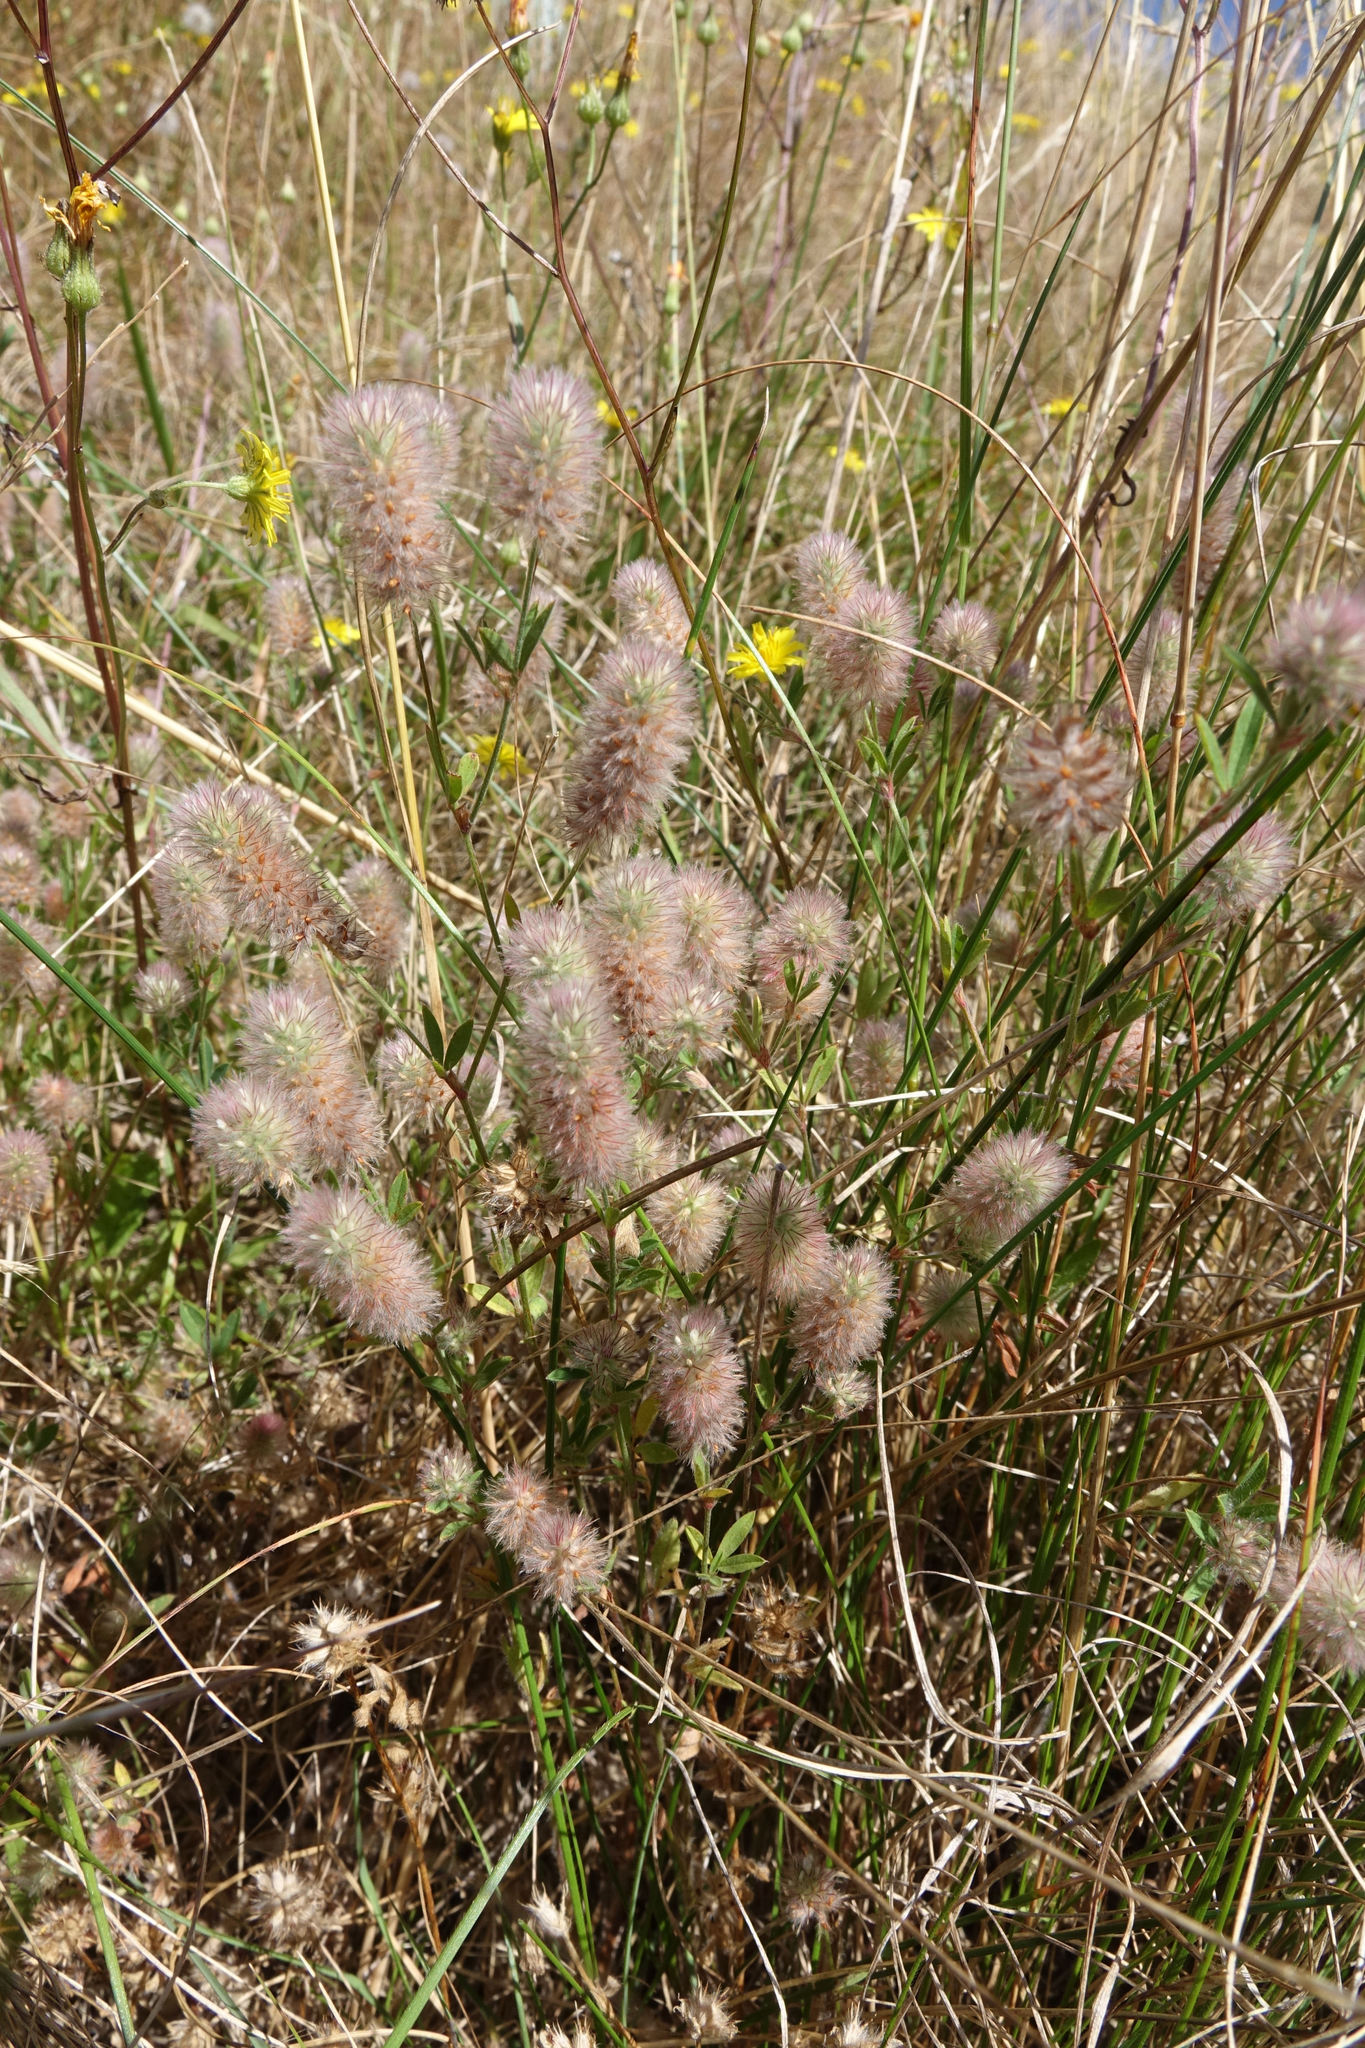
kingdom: Plantae
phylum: Tracheophyta
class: Magnoliopsida
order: Fabales
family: Fabaceae
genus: Trifolium
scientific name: Trifolium arvense
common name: Hare's-foot clover
